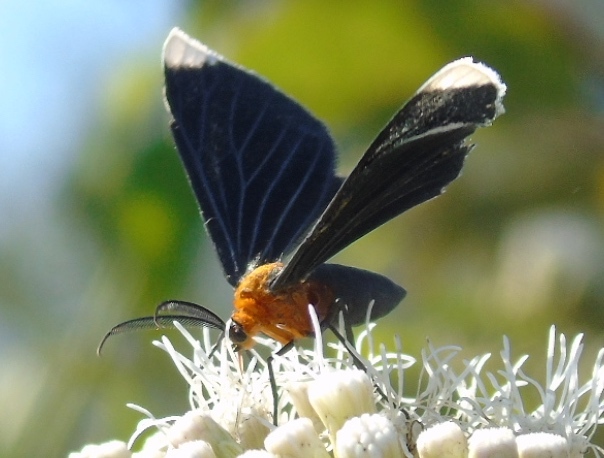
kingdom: Animalia
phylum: Arthropoda
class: Insecta
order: Lepidoptera
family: Geometridae
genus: Melanchroia
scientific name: Melanchroia chephise
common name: White-tipped black
